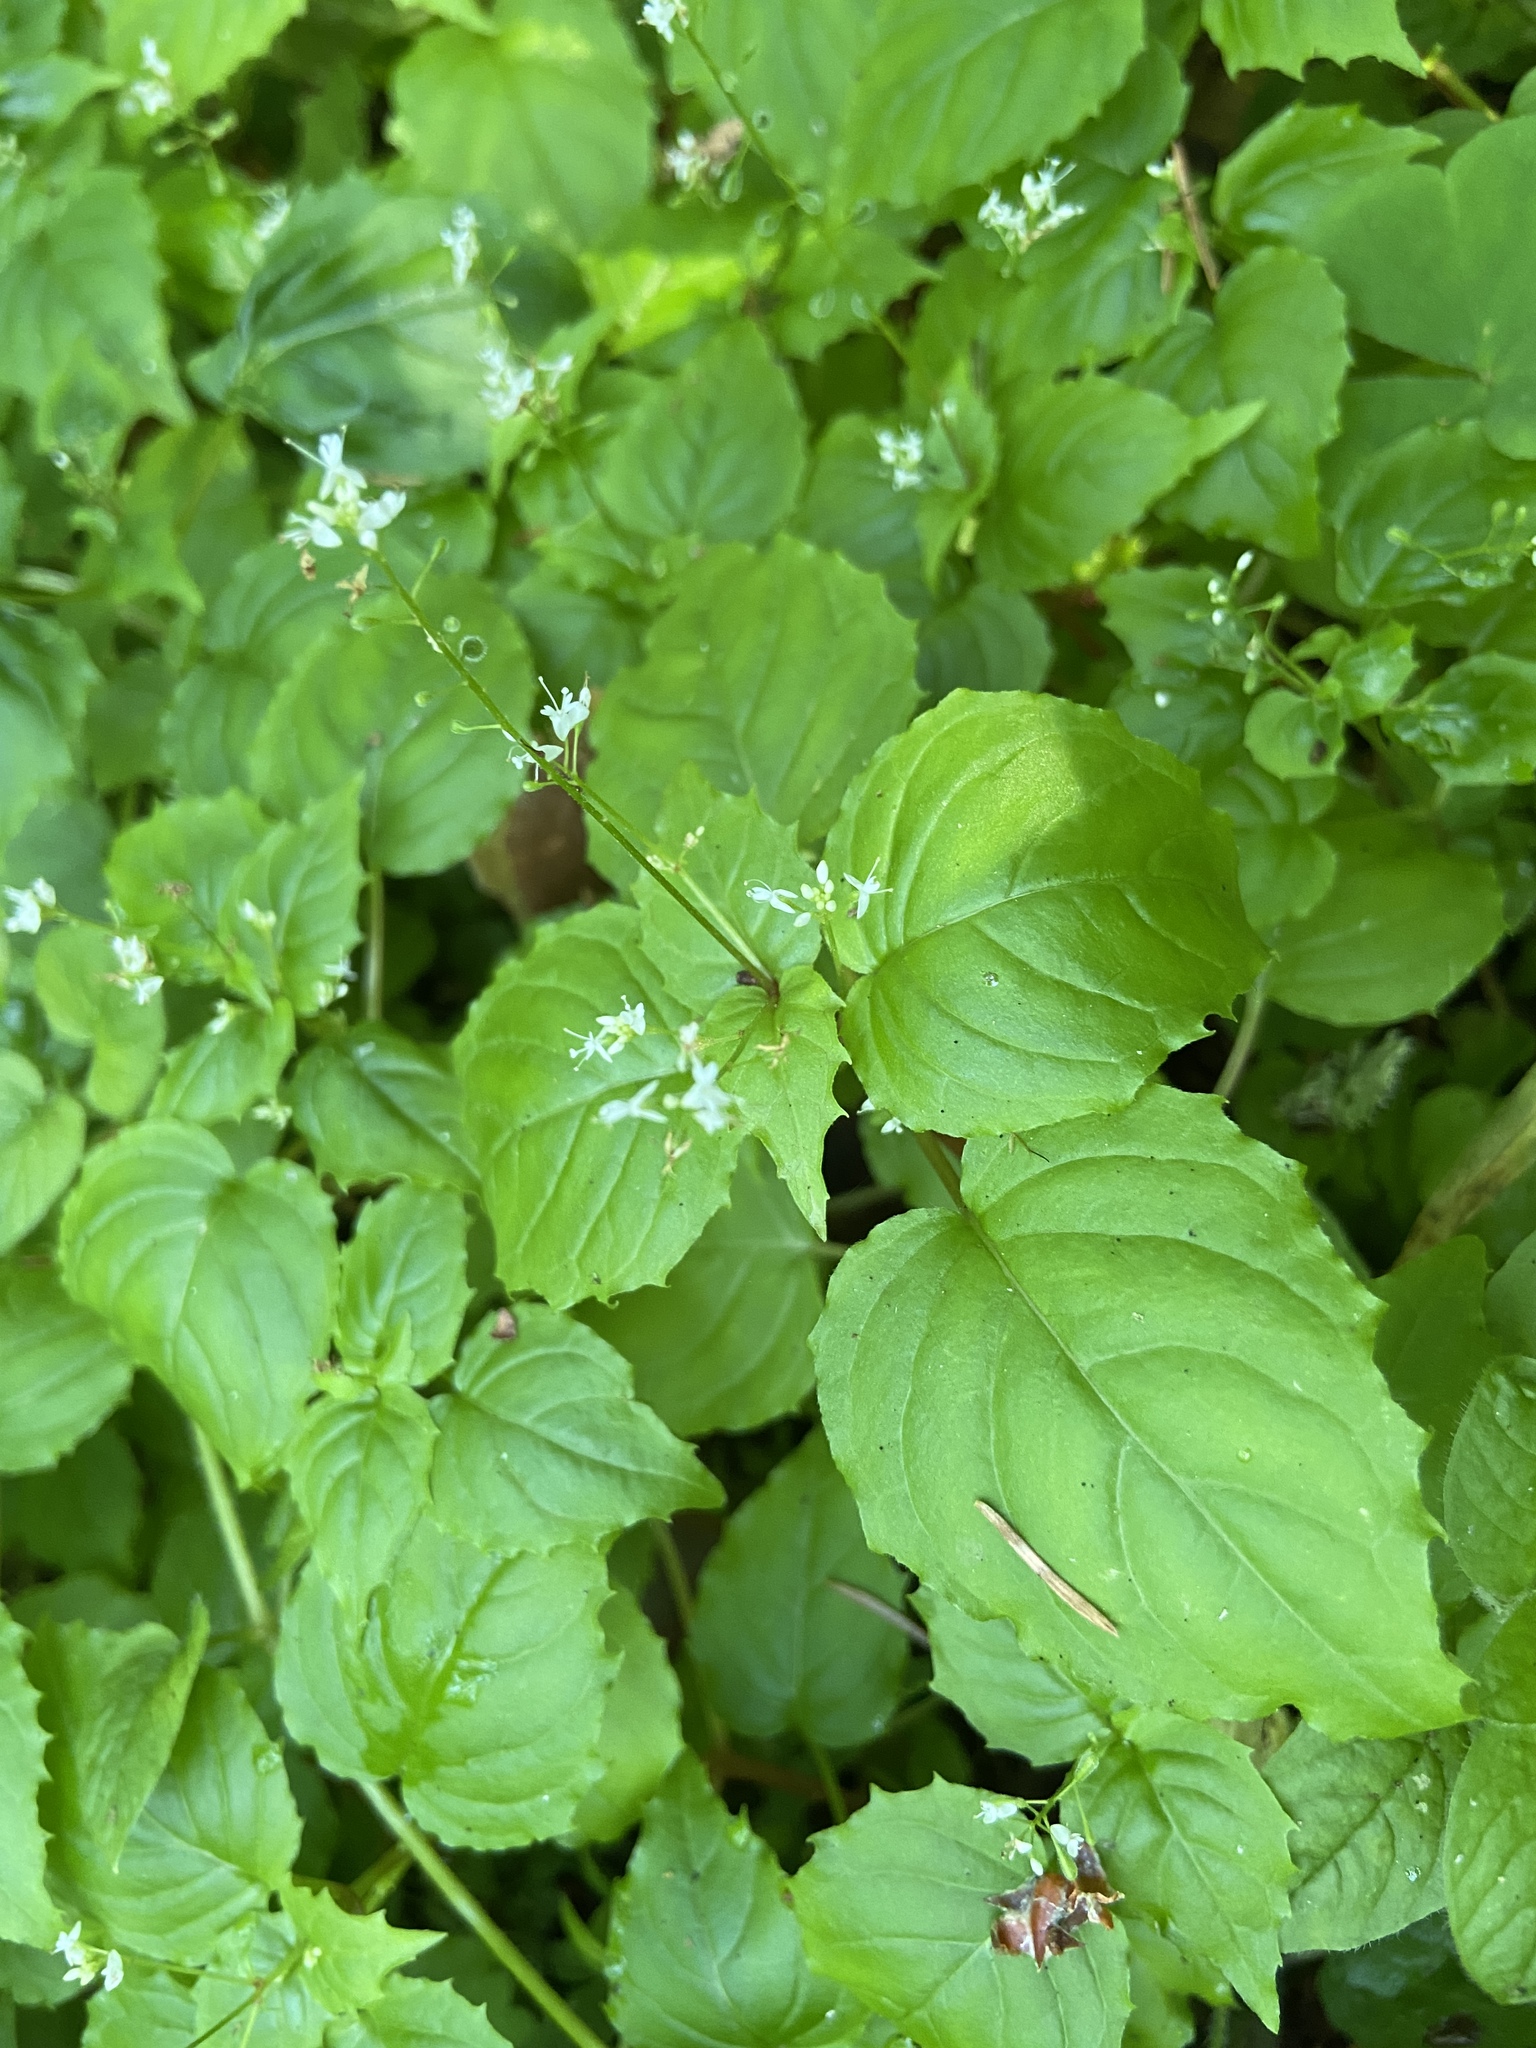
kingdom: Plantae
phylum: Tracheophyta
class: Magnoliopsida
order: Myrtales
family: Onagraceae
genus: Circaea
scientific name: Circaea alpina
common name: Alpine enchanter's-nightshade
